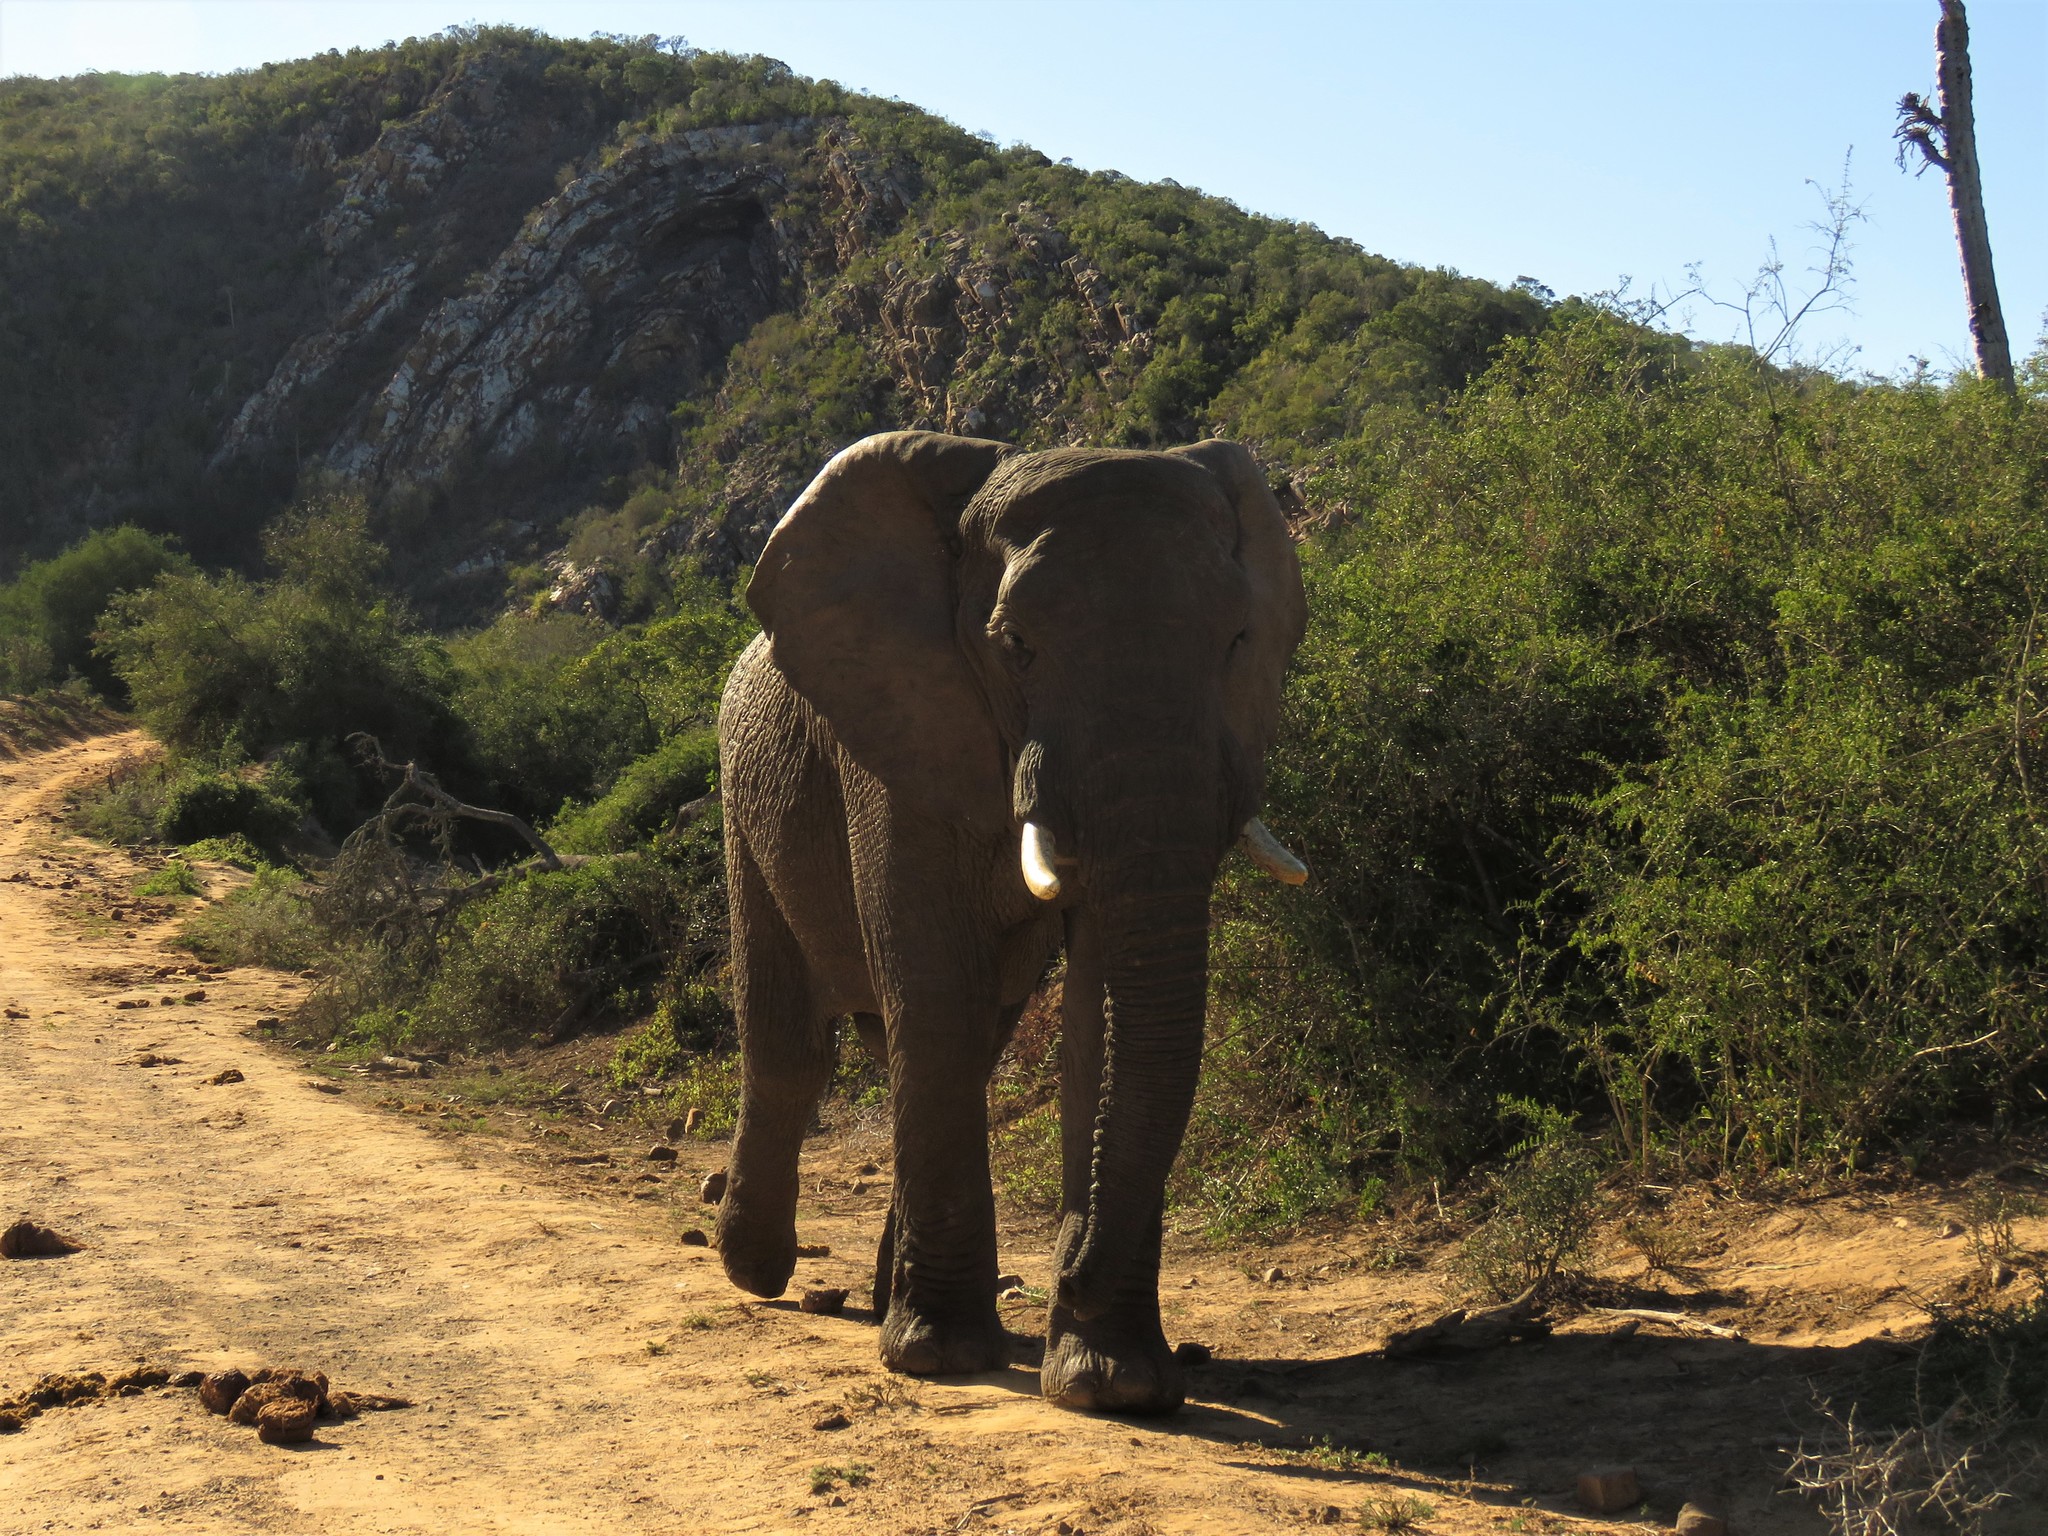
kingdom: Animalia
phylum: Chordata
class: Mammalia
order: Proboscidea
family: Elephantidae
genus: Loxodonta
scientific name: Loxodonta africana
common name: African elephant
